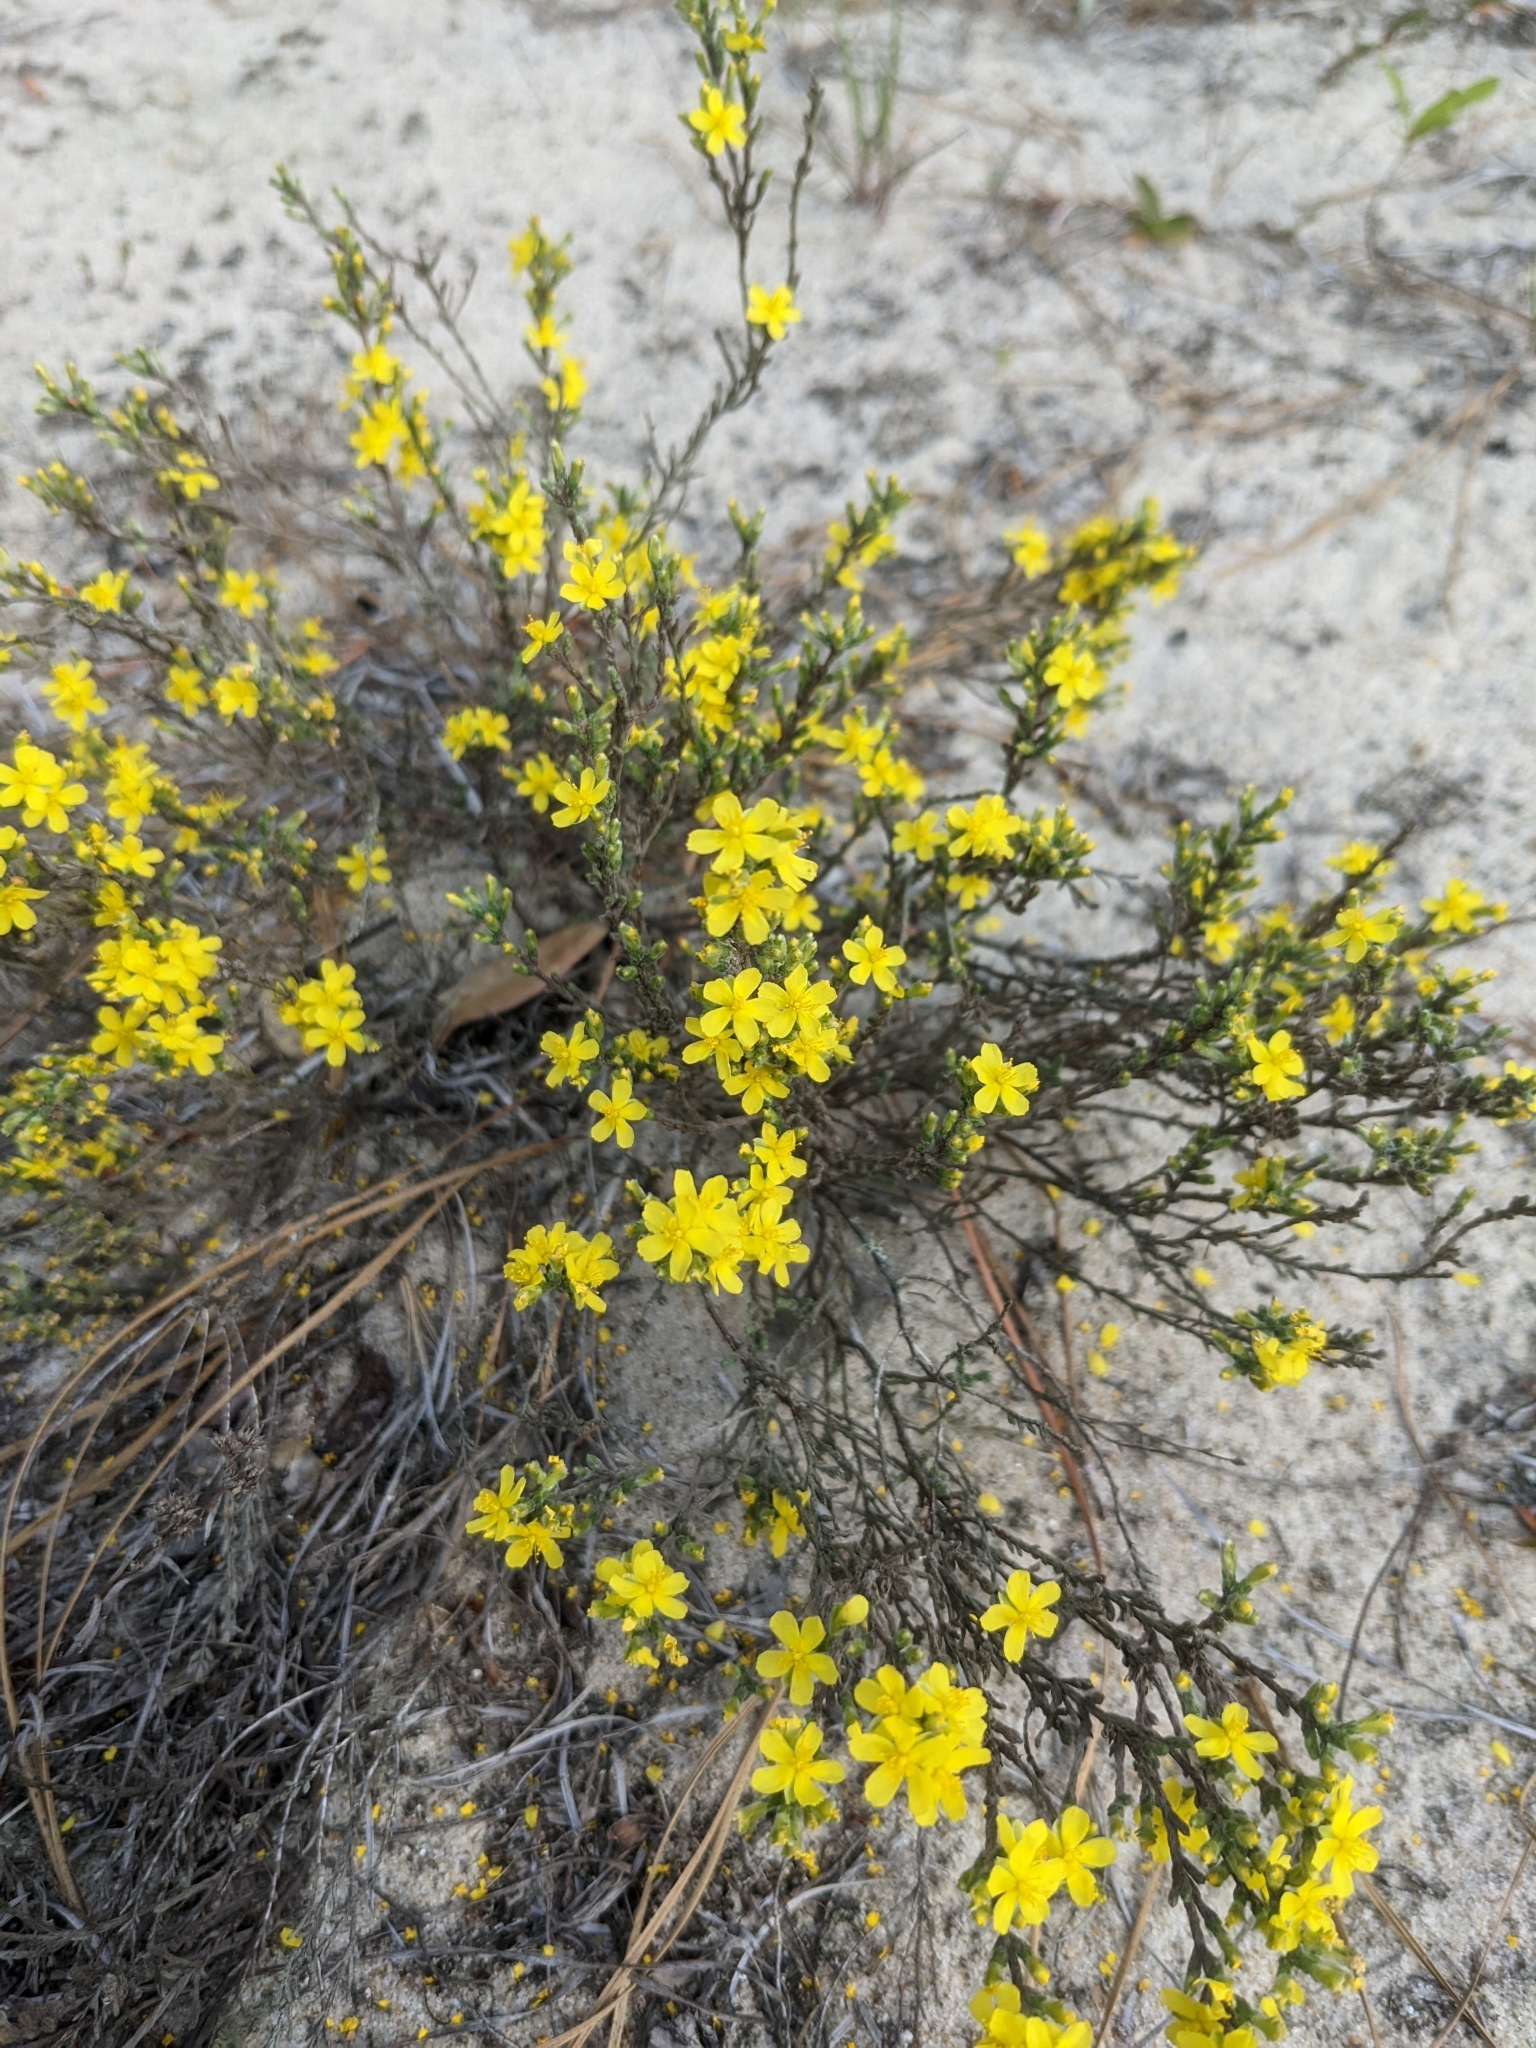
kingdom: Plantae
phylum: Tracheophyta
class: Magnoliopsida
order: Malvales
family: Cistaceae
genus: Hudsonia
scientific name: Hudsonia tomentosa
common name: Beach-heath
